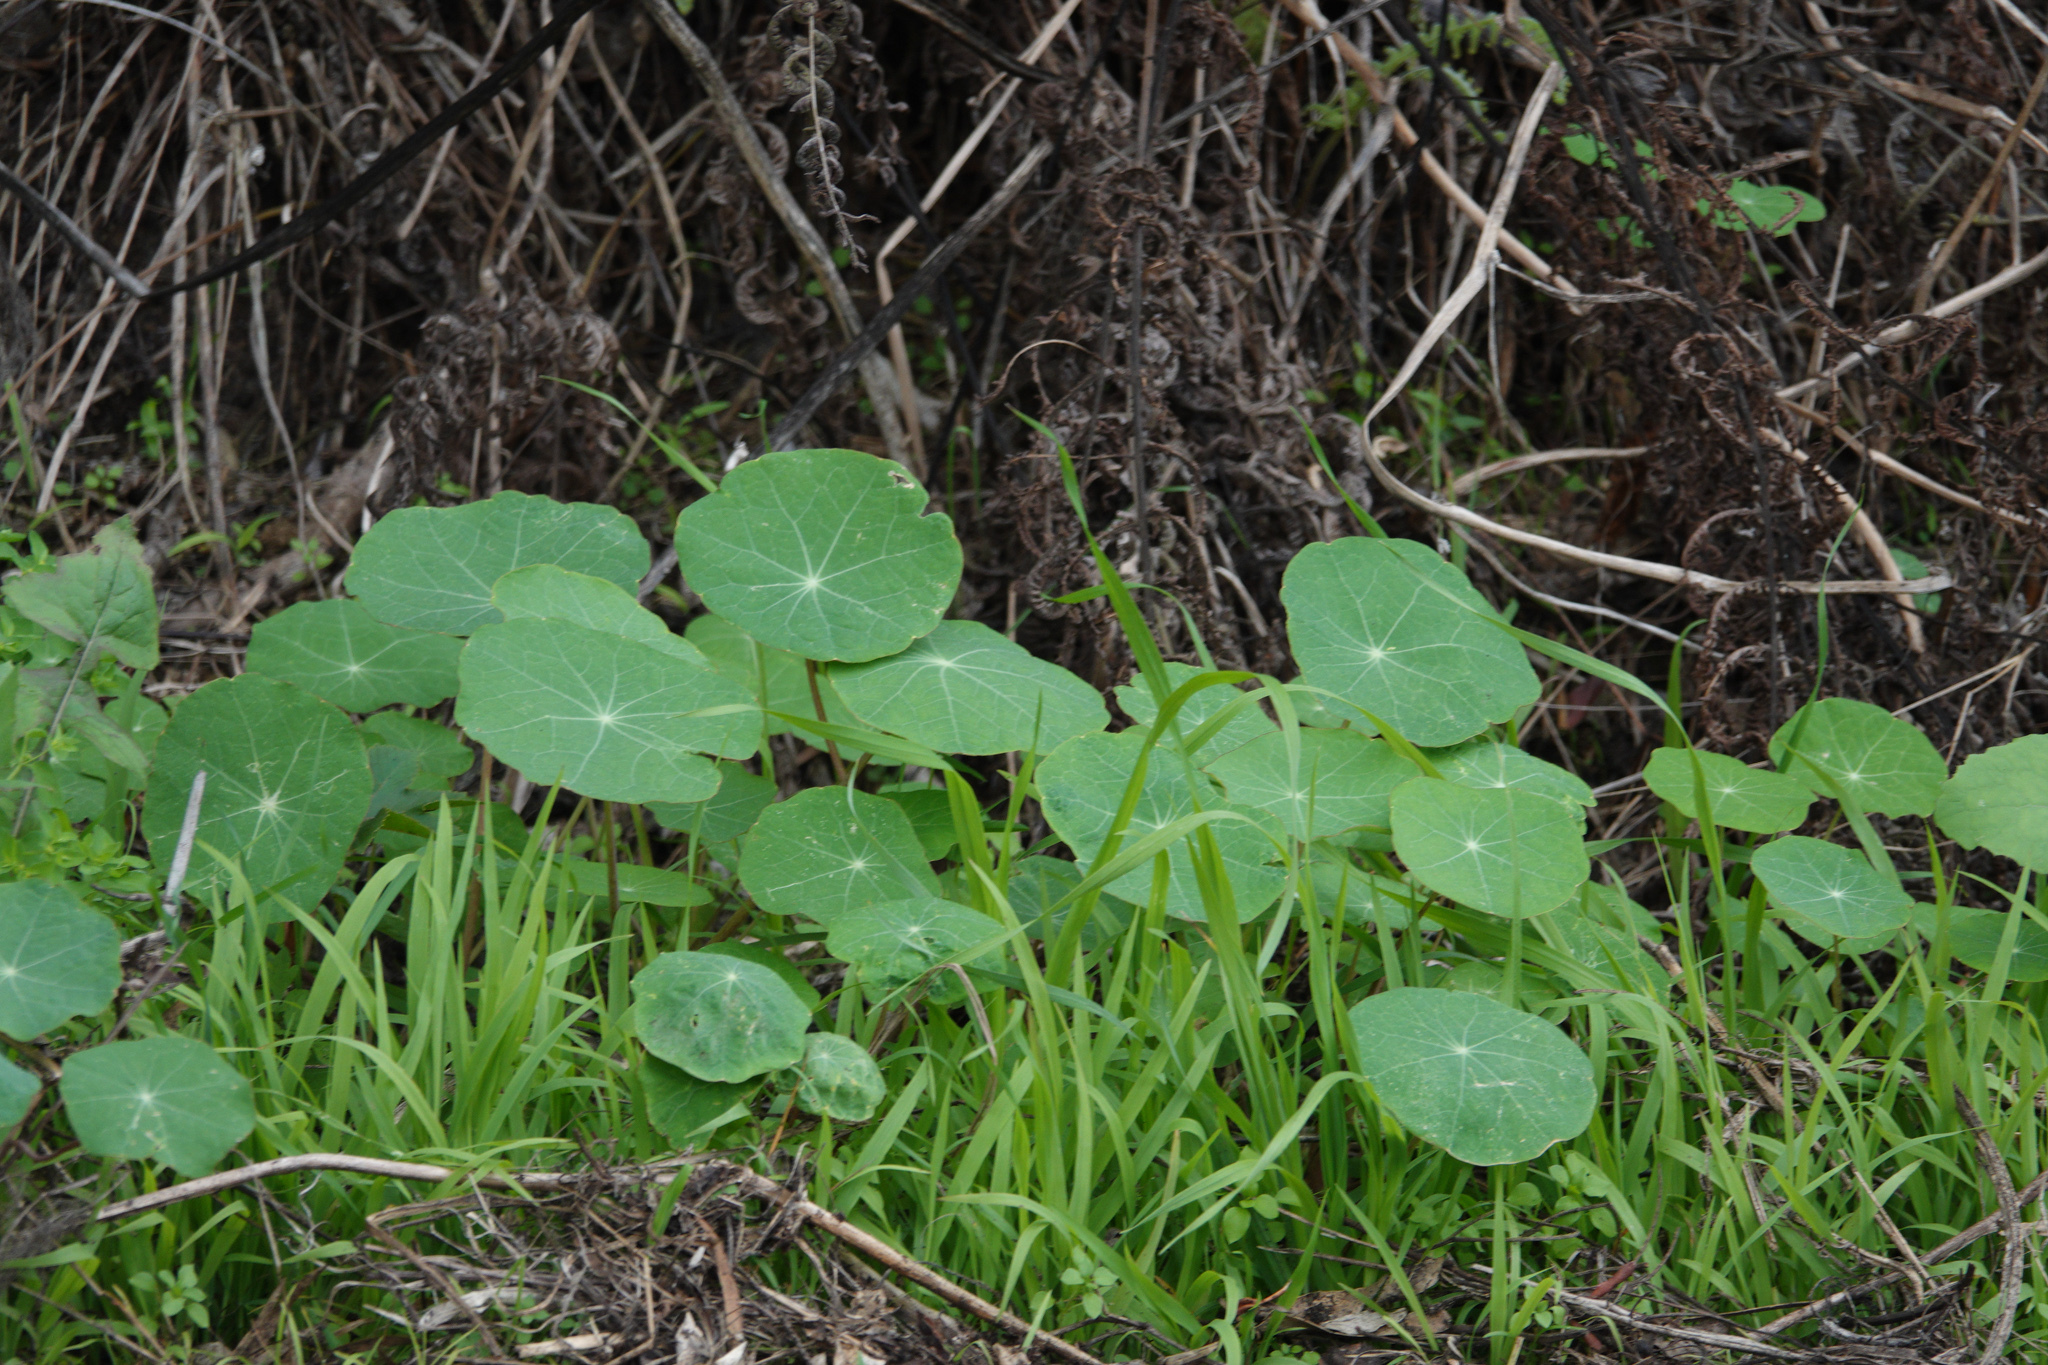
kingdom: Plantae
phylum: Tracheophyta
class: Magnoliopsida
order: Brassicales
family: Tropaeolaceae
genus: Tropaeolum
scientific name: Tropaeolum majus
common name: Nasturtium
